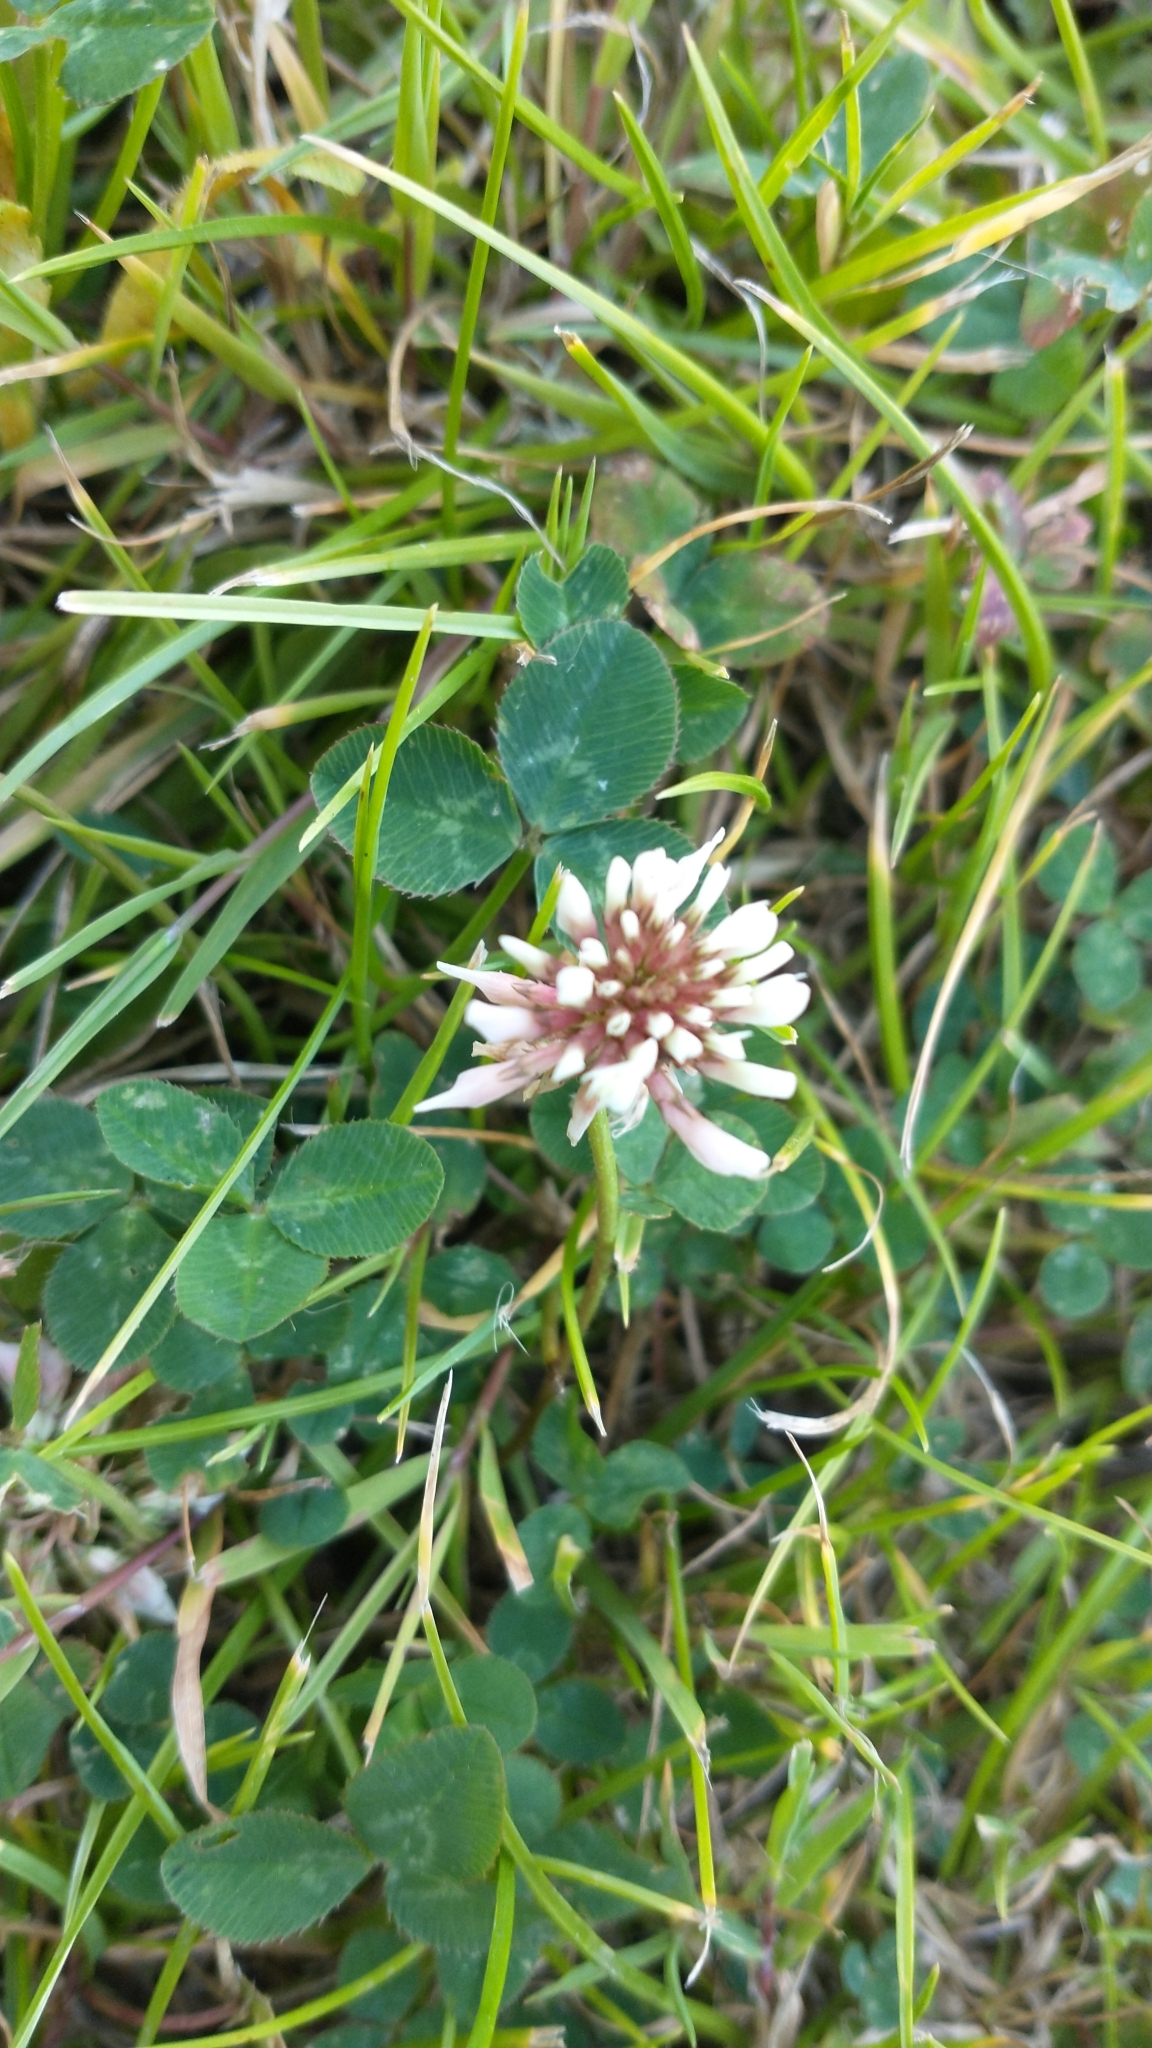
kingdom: Plantae
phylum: Tracheophyta
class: Magnoliopsida
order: Fabales
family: Fabaceae
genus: Trifolium
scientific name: Trifolium repens
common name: White clover
